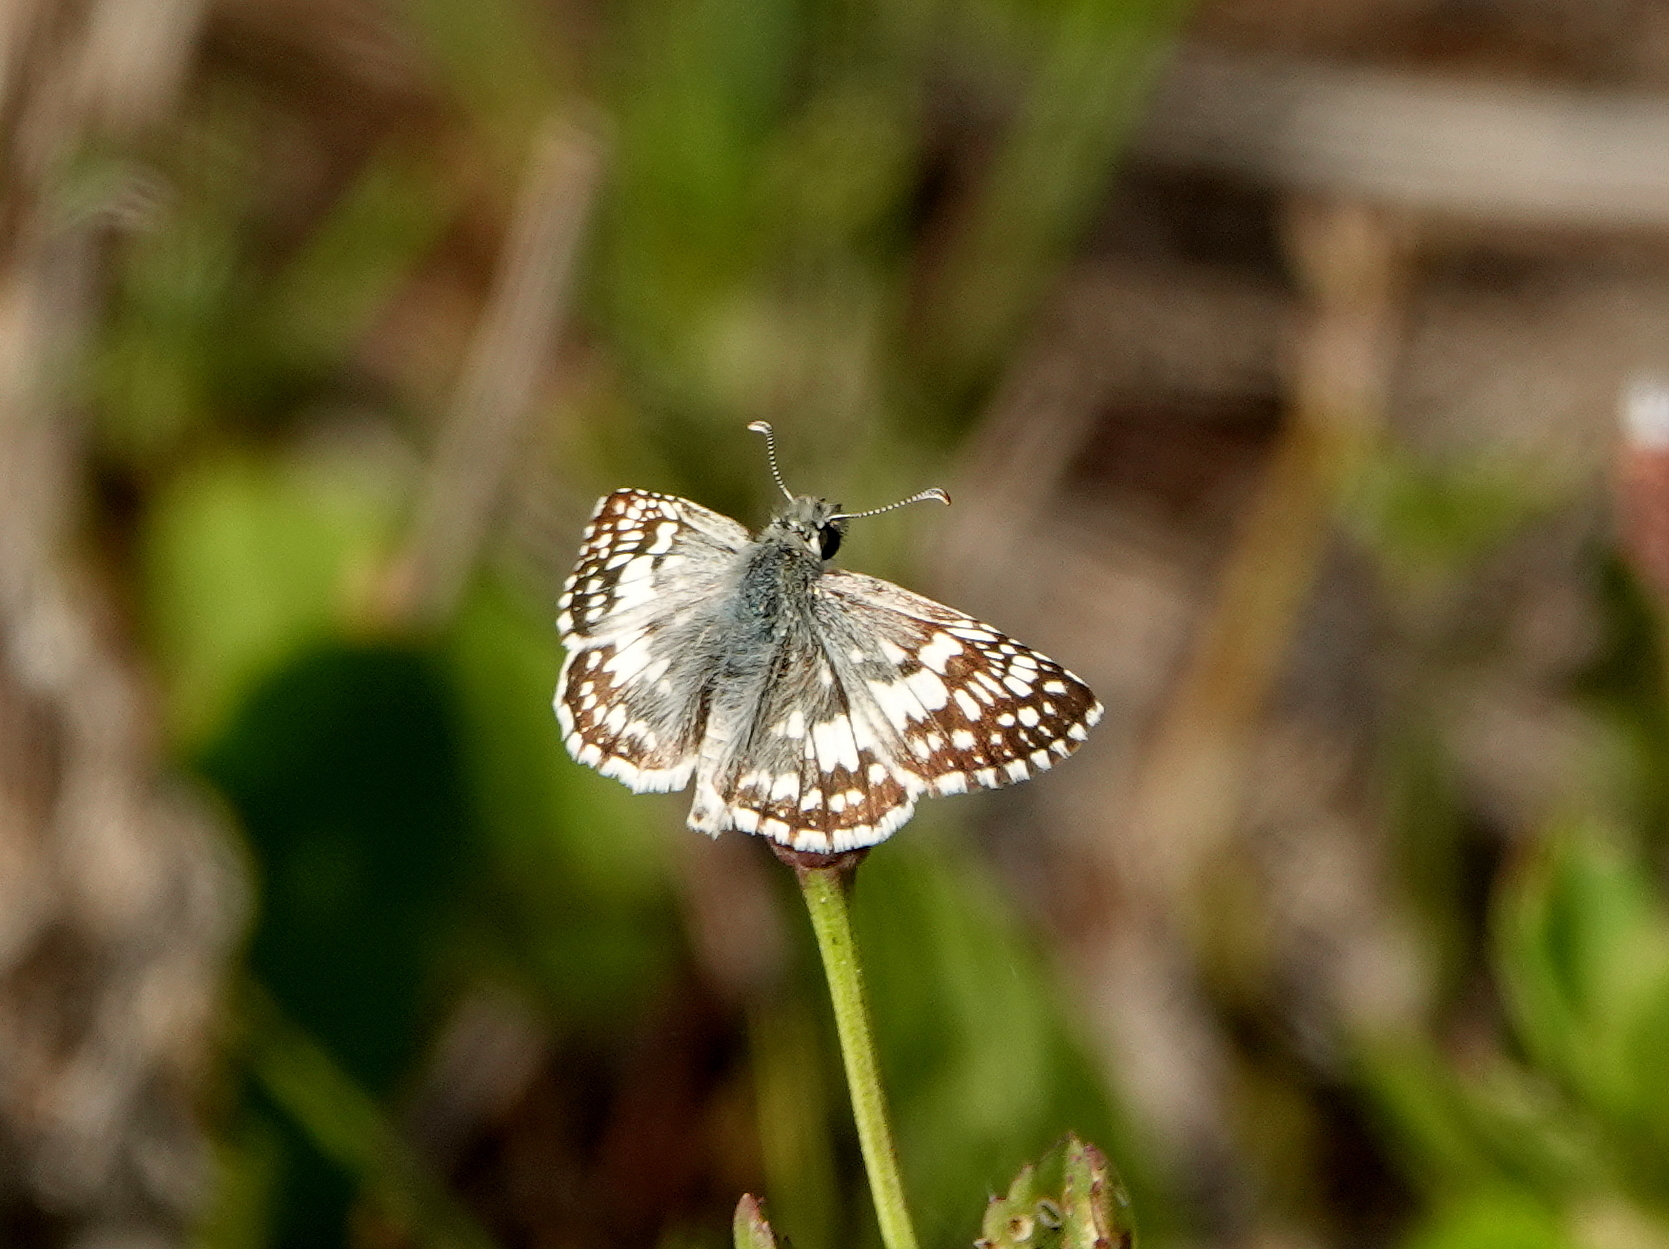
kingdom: Animalia
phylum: Arthropoda
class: Insecta
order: Lepidoptera
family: Hesperiidae
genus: Burnsius
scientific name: Burnsius albezens
